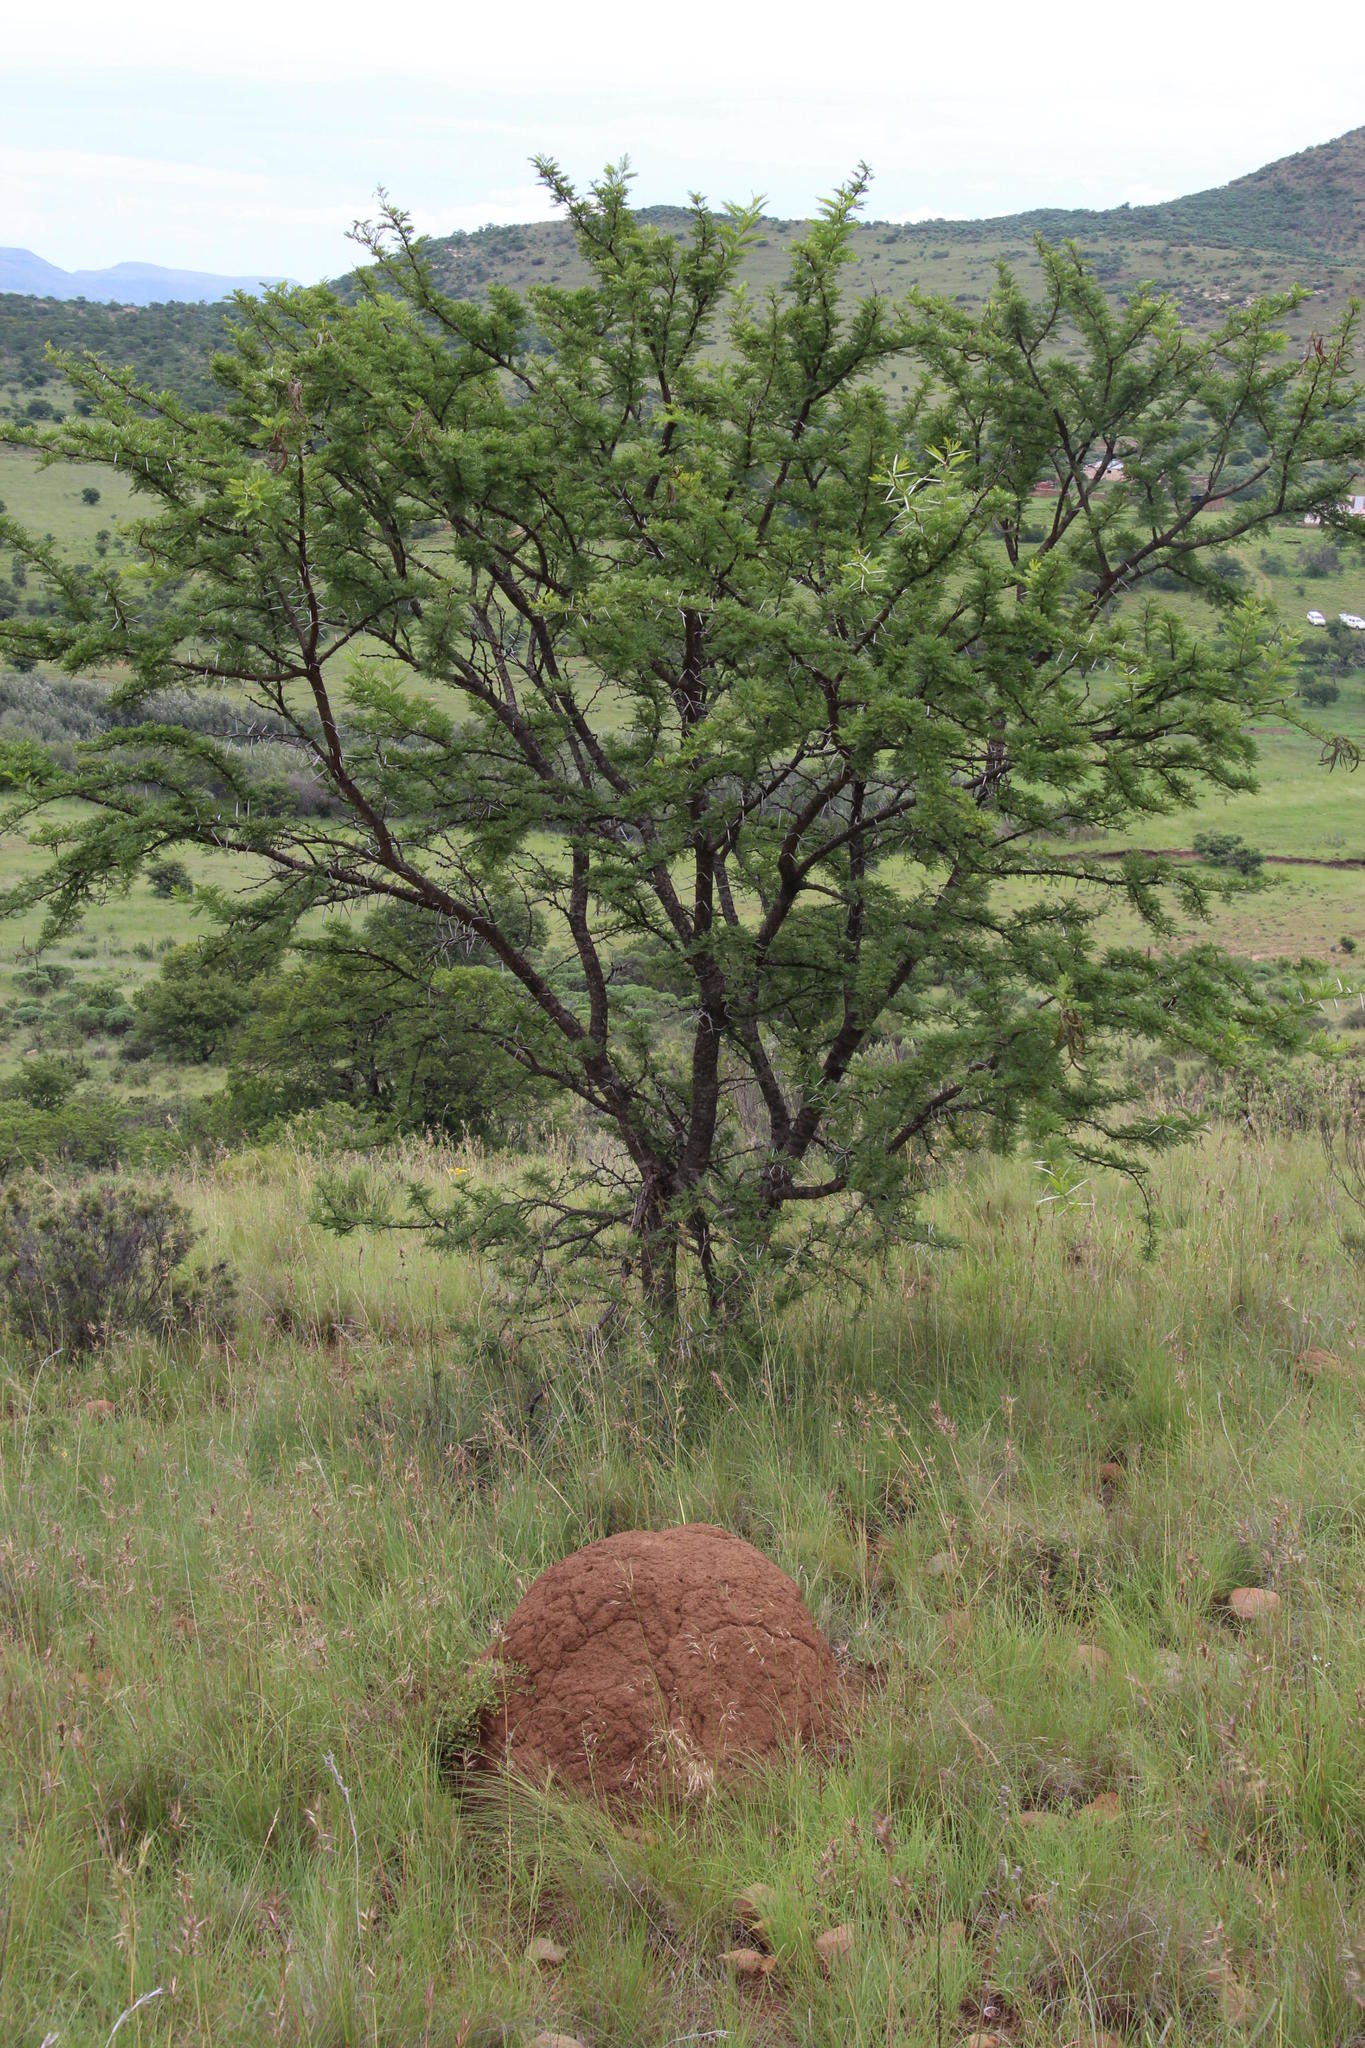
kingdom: Plantae
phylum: Tracheophyta
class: Magnoliopsida
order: Fabales
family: Fabaceae
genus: Vachellia
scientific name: Vachellia karroo
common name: Sweet thorn
